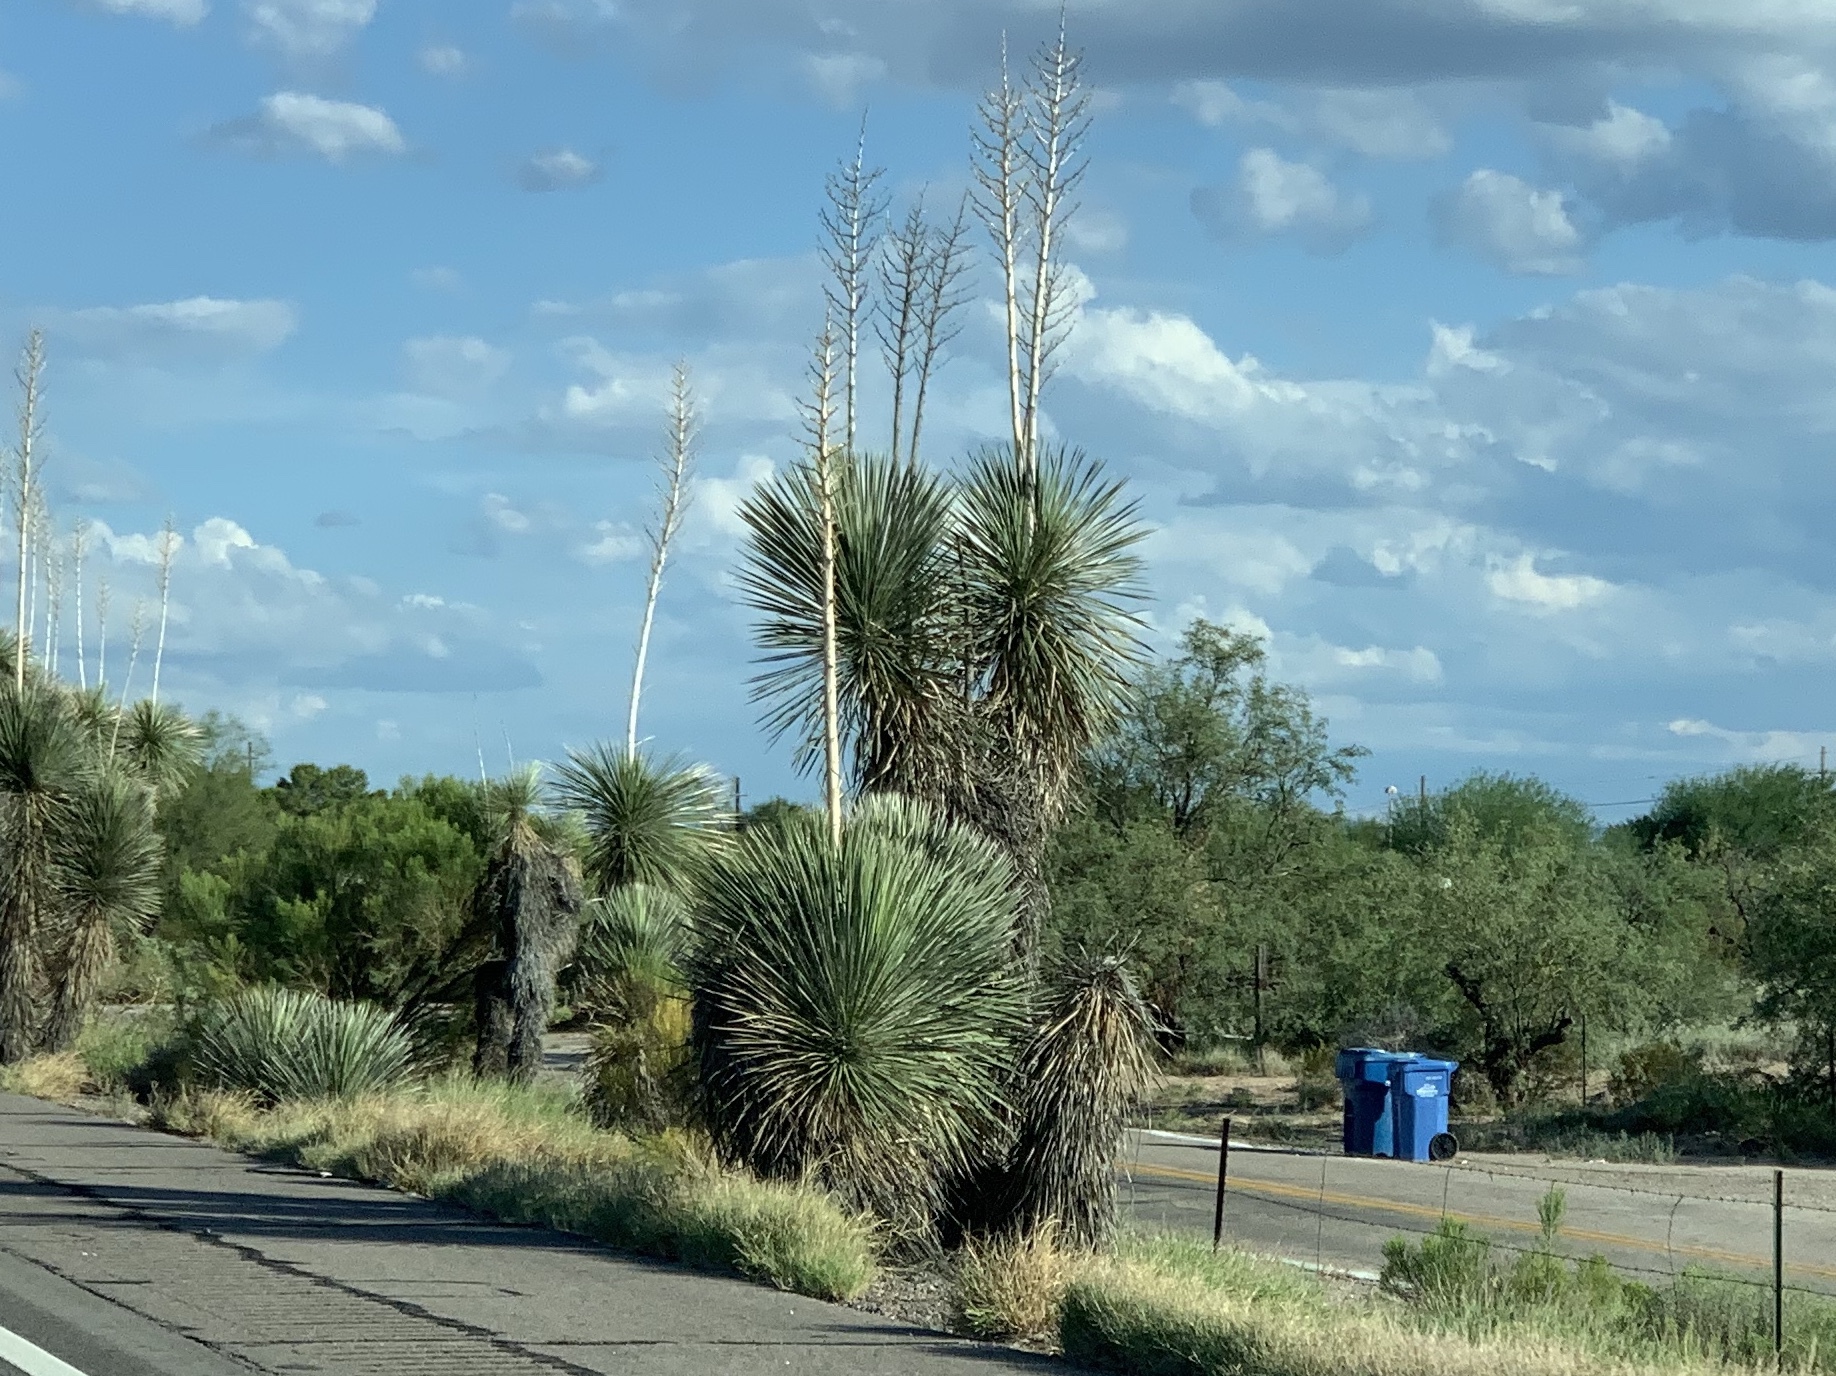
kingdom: Plantae
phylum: Tracheophyta
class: Liliopsida
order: Asparagales
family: Asparagaceae
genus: Yucca
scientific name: Yucca elata
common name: Palmella
